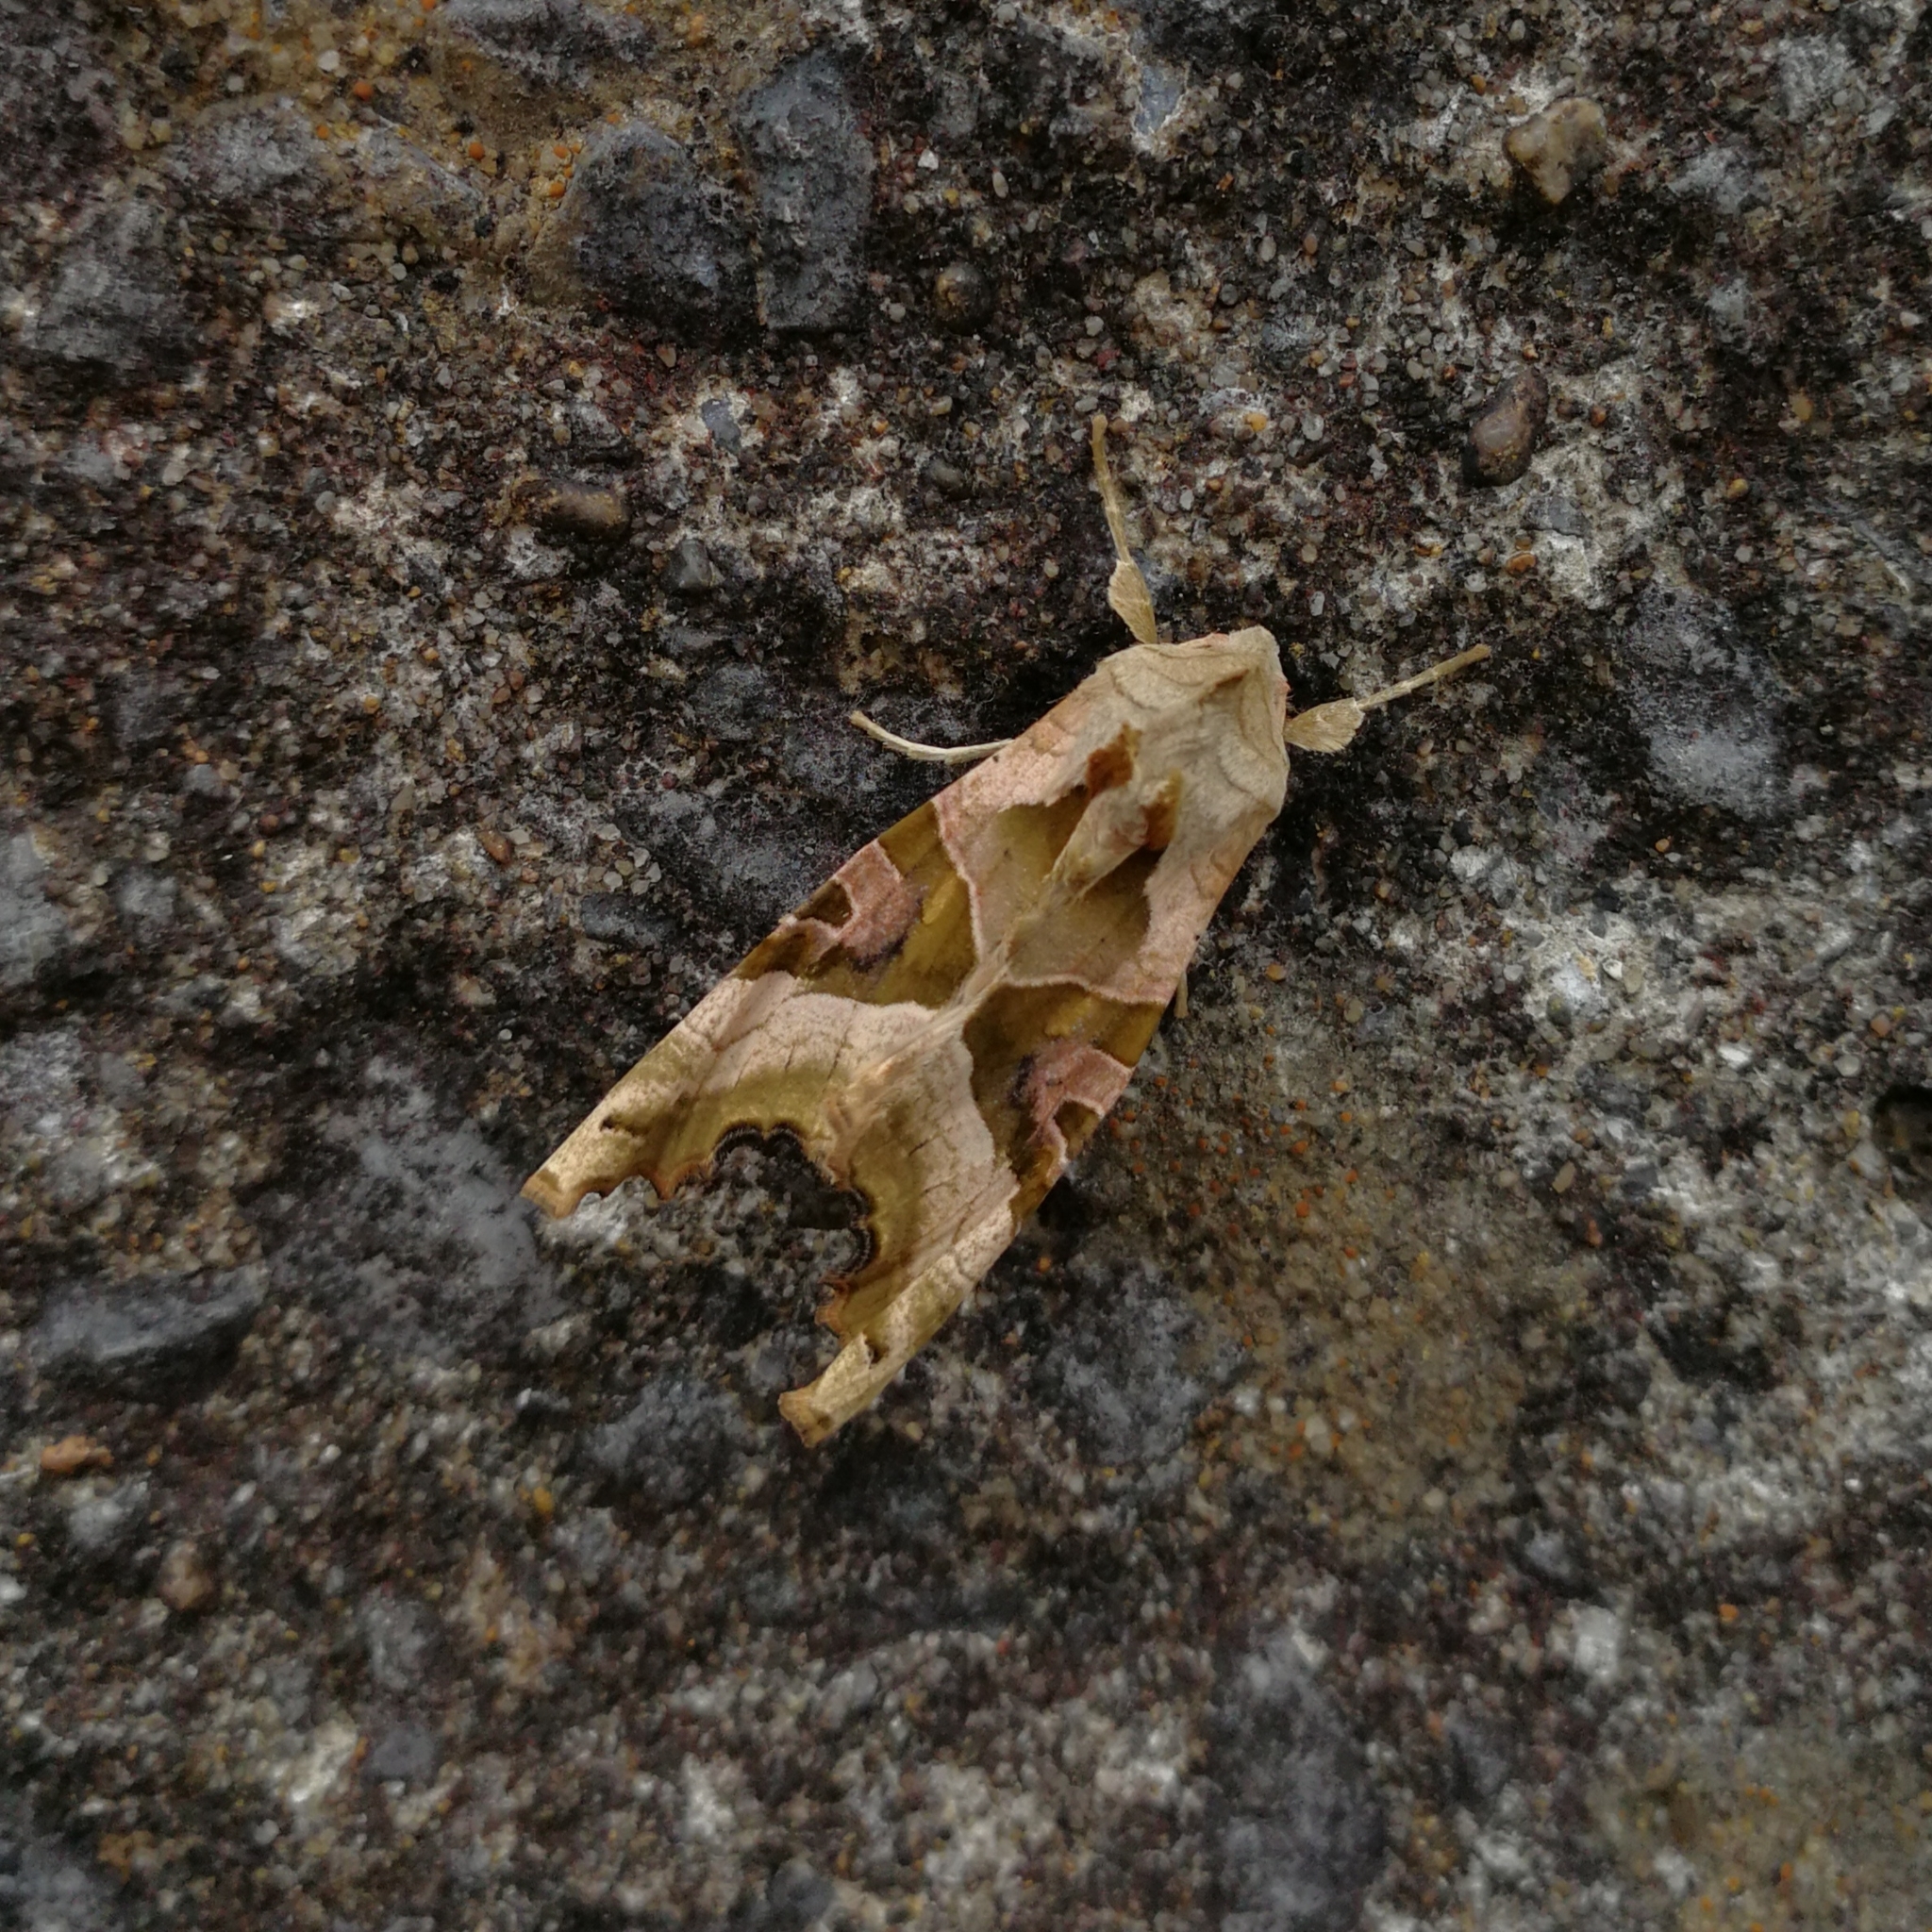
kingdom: Animalia
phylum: Arthropoda
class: Insecta
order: Lepidoptera
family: Noctuidae
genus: Phlogophora
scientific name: Phlogophora meticulosa
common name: Angle shades
